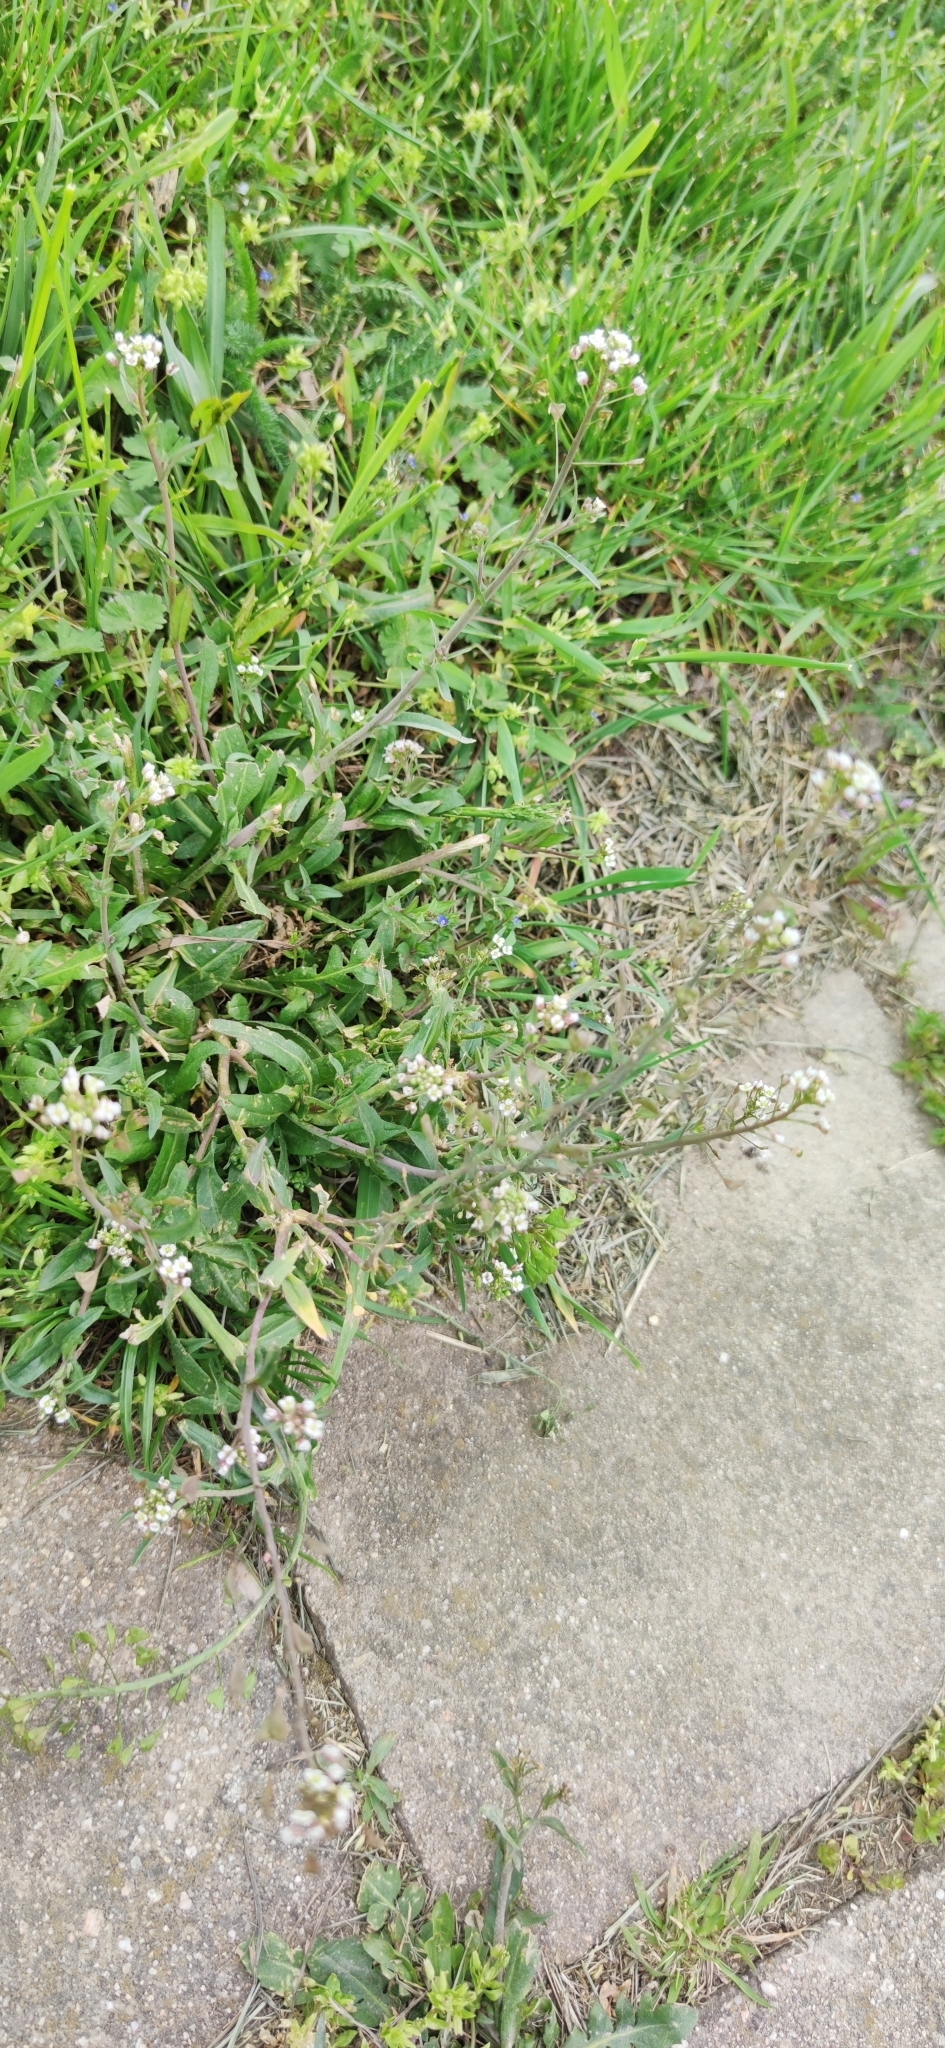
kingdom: Plantae
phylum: Tracheophyta
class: Magnoliopsida
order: Brassicales
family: Brassicaceae
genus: Capsella
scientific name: Capsella bursa-pastoris
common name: Shepherd's purse
